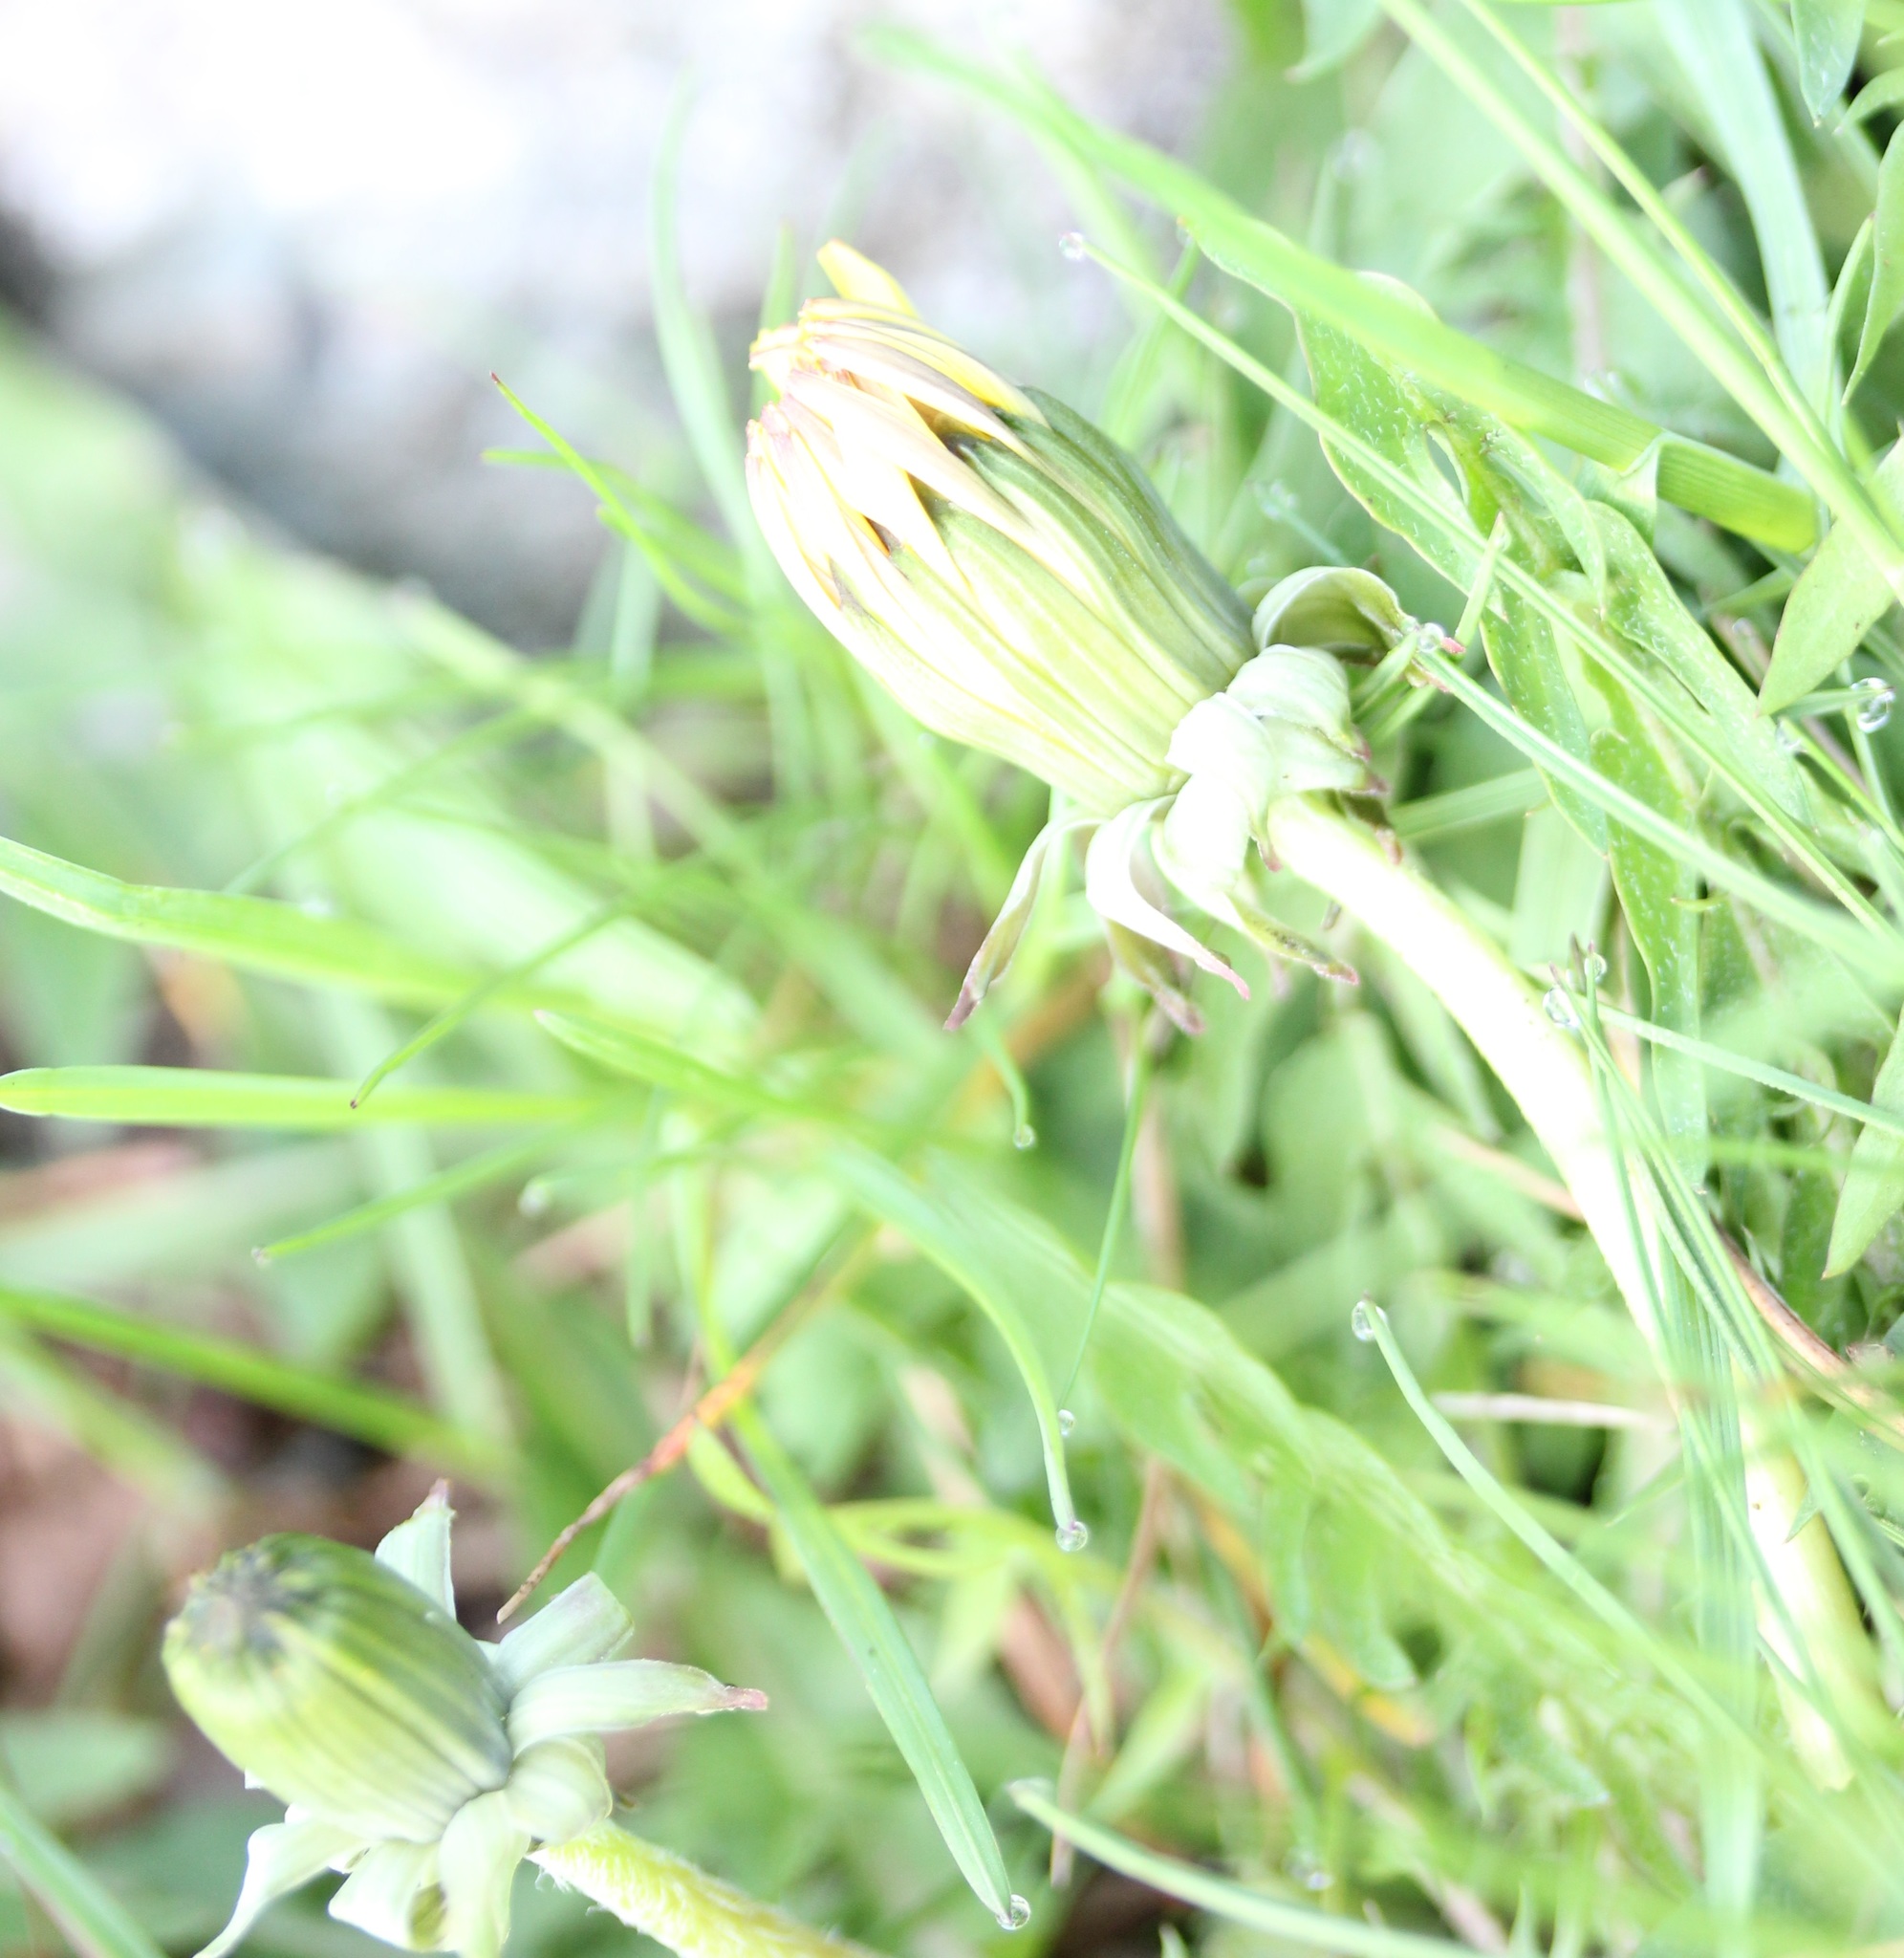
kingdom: Plantae
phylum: Tracheophyta
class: Magnoliopsida
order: Asterales
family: Asteraceae
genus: Taraxacum
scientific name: Taraxacum officinale
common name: Common dandelion
